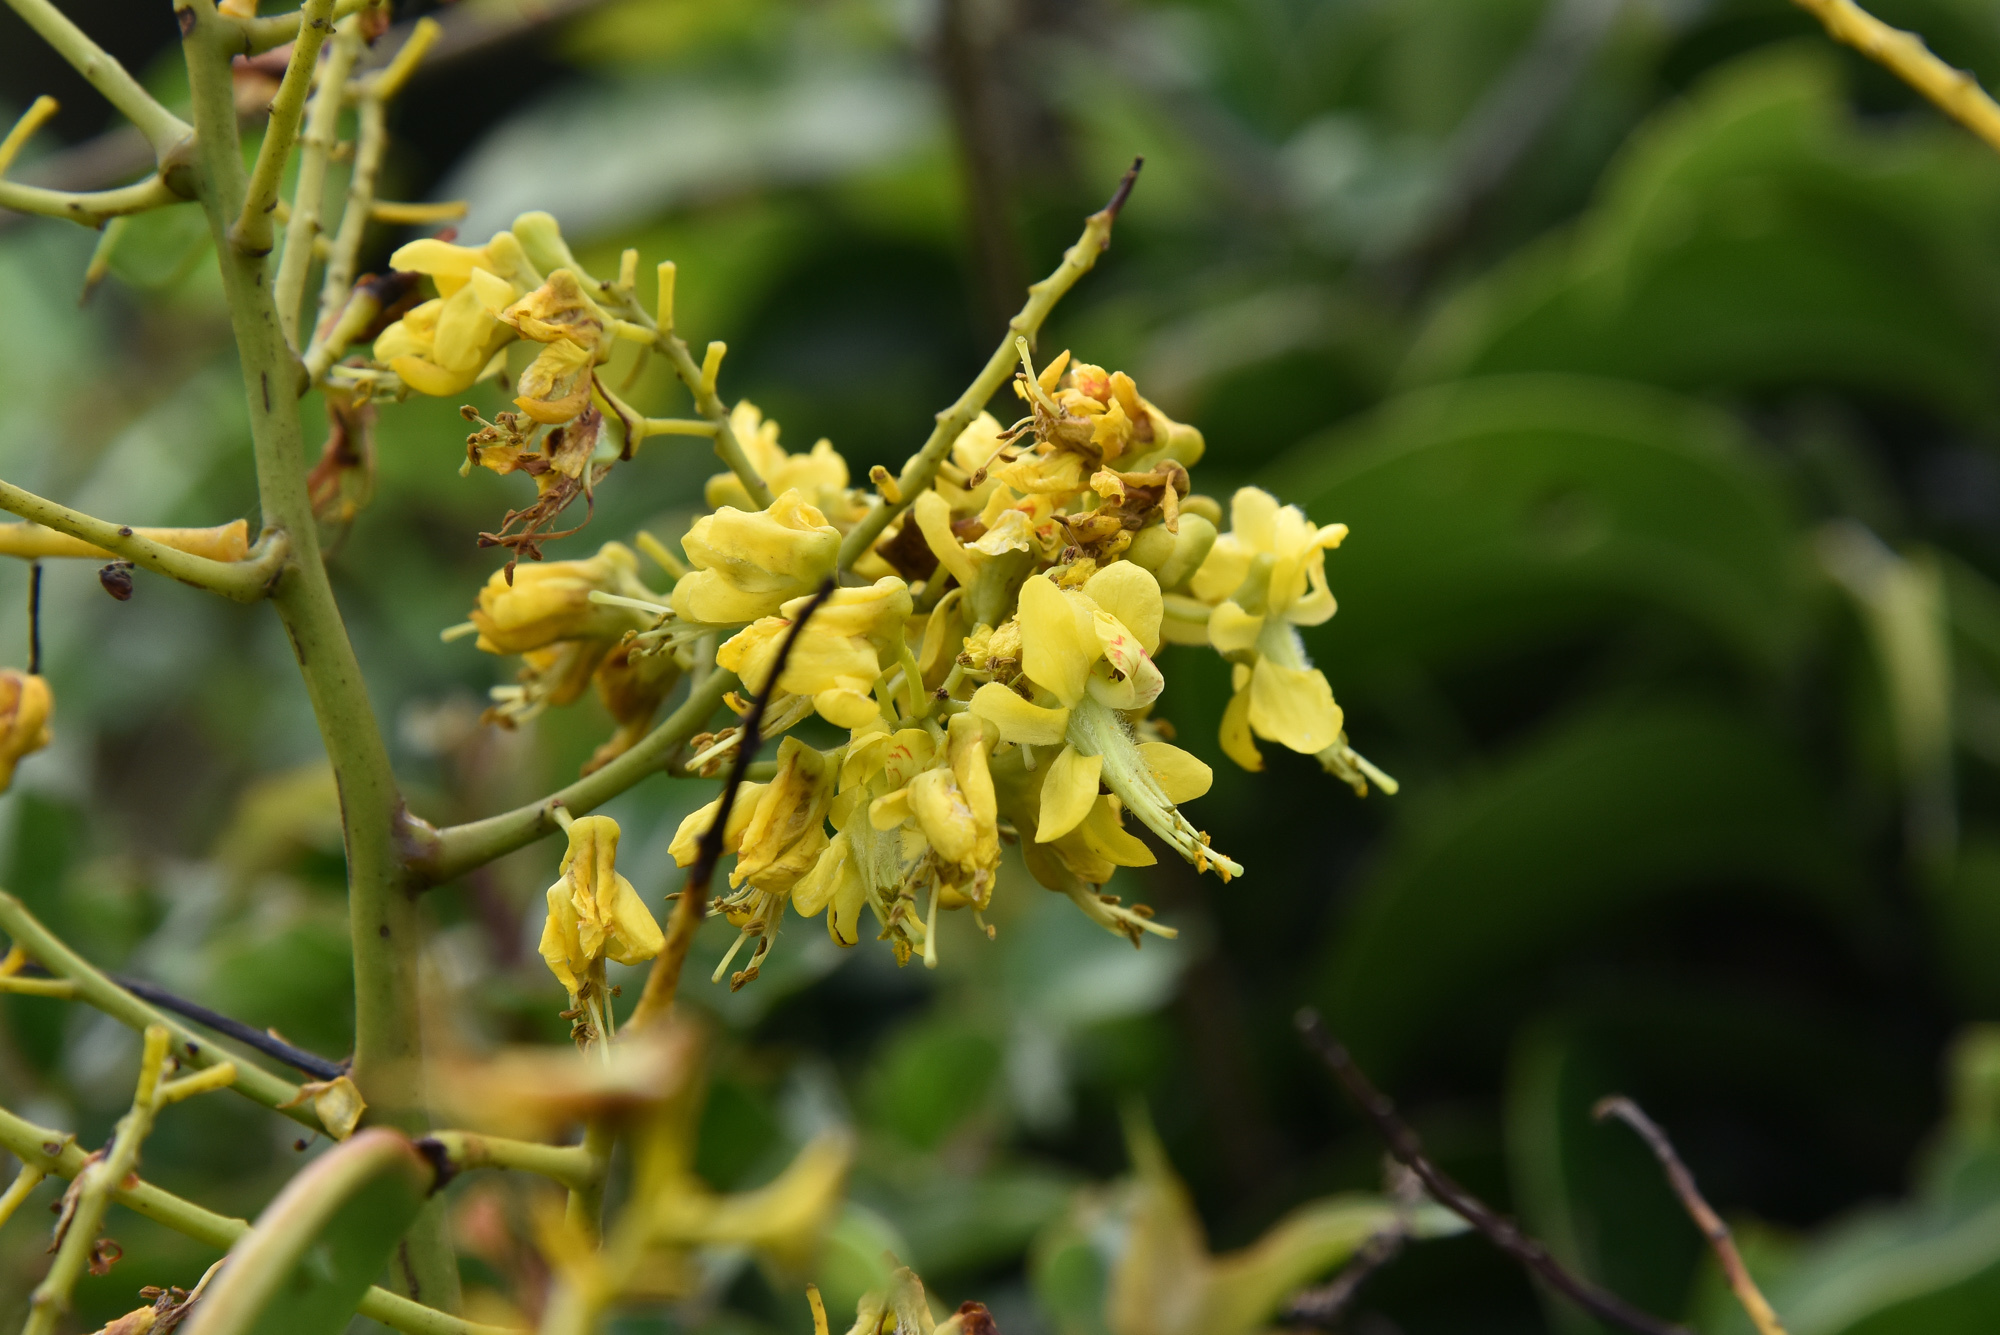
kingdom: Plantae
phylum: Tracheophyta
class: Magnoliopsida
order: Fabales
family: Fabaceae
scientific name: Fabaceae
